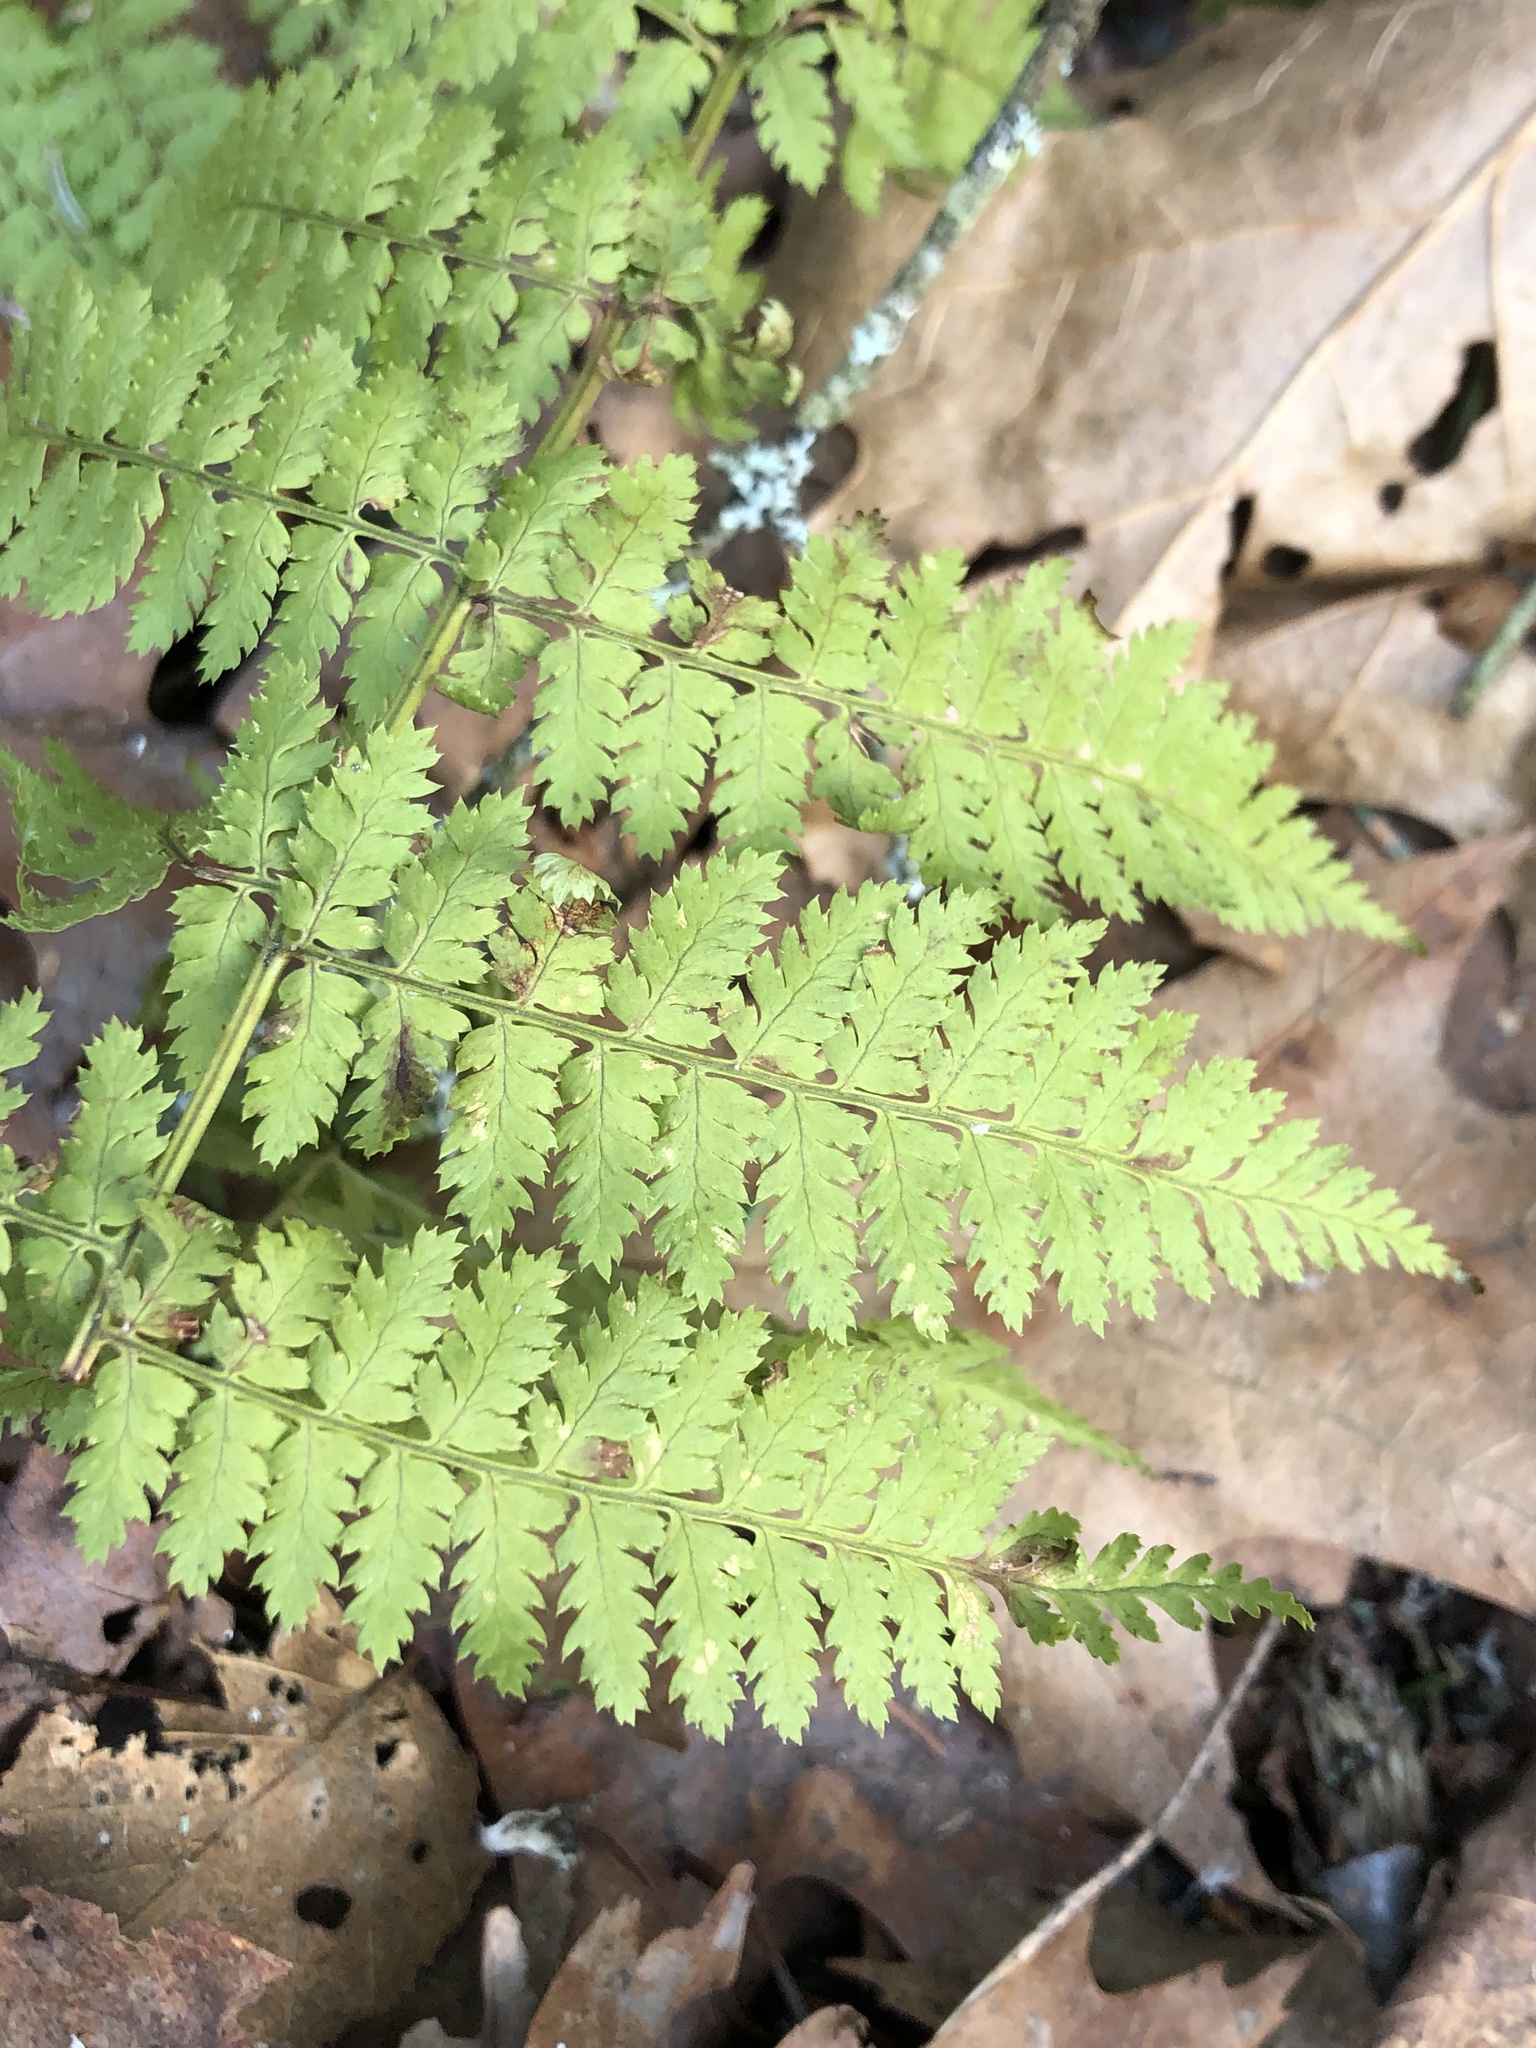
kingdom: Plantae
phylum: Tracheophyta
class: Polypodiopsida
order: Polypodiales
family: Dryopteridaceae
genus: Dryopteris
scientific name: Dryopteris intermedia
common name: Evergreen wood fern
